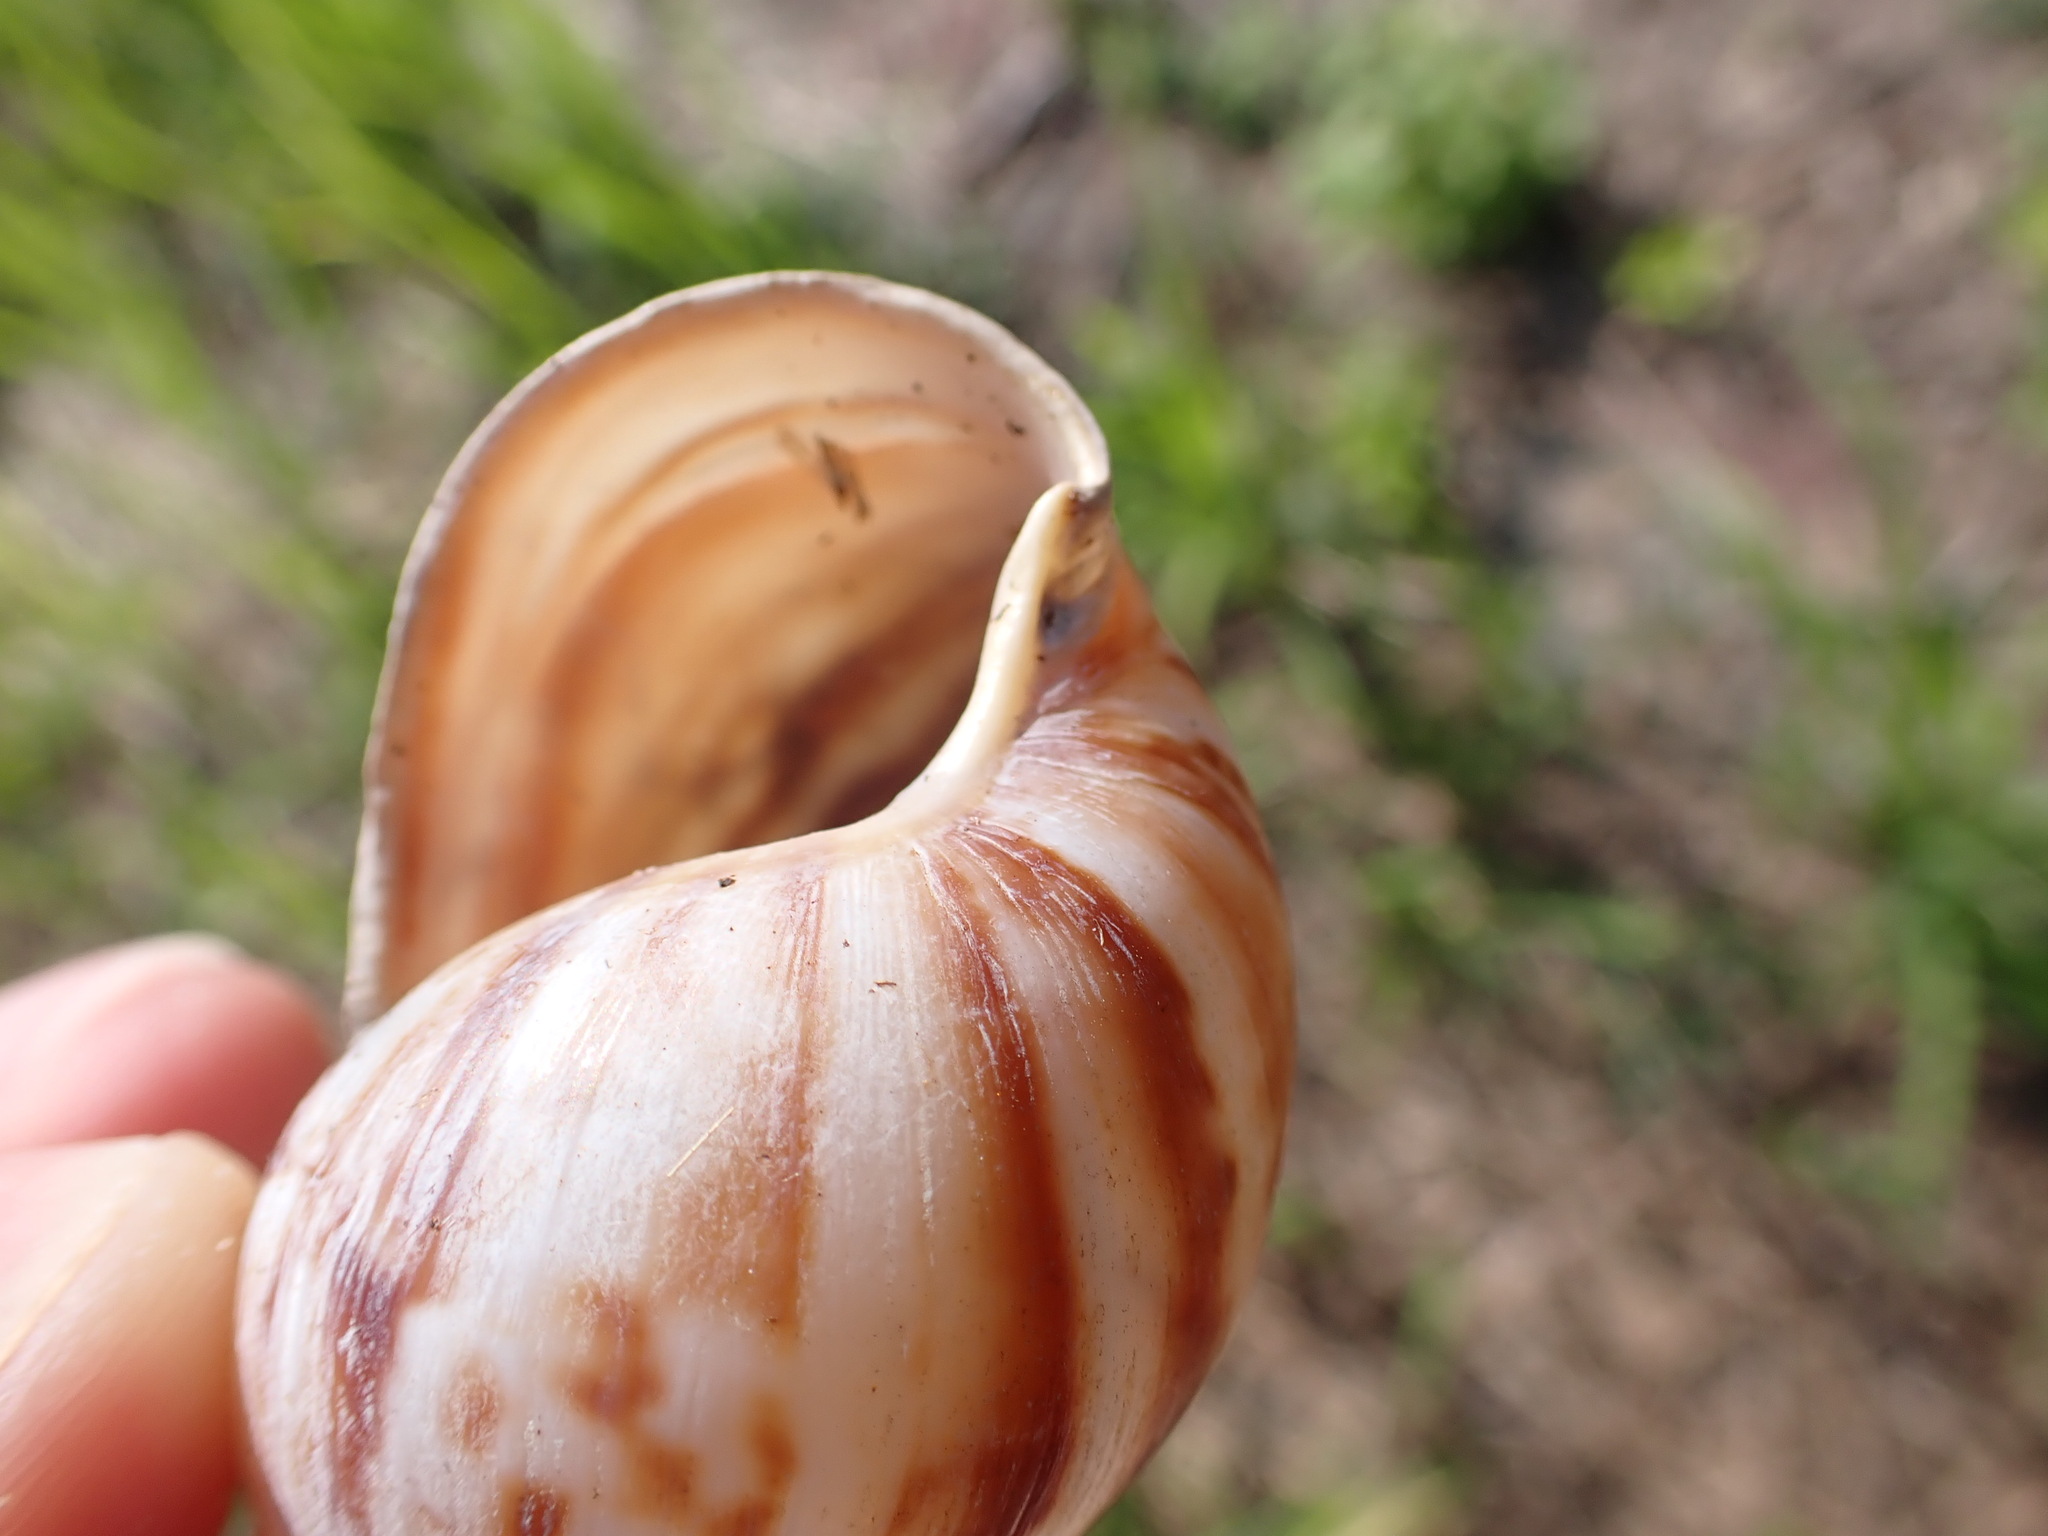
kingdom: Animalia
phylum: Mollusca
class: Gastropoda
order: Stylommatophora
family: Achatinidae
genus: Lissachatina
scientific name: Lissachatina fulica
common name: Giant african snail
